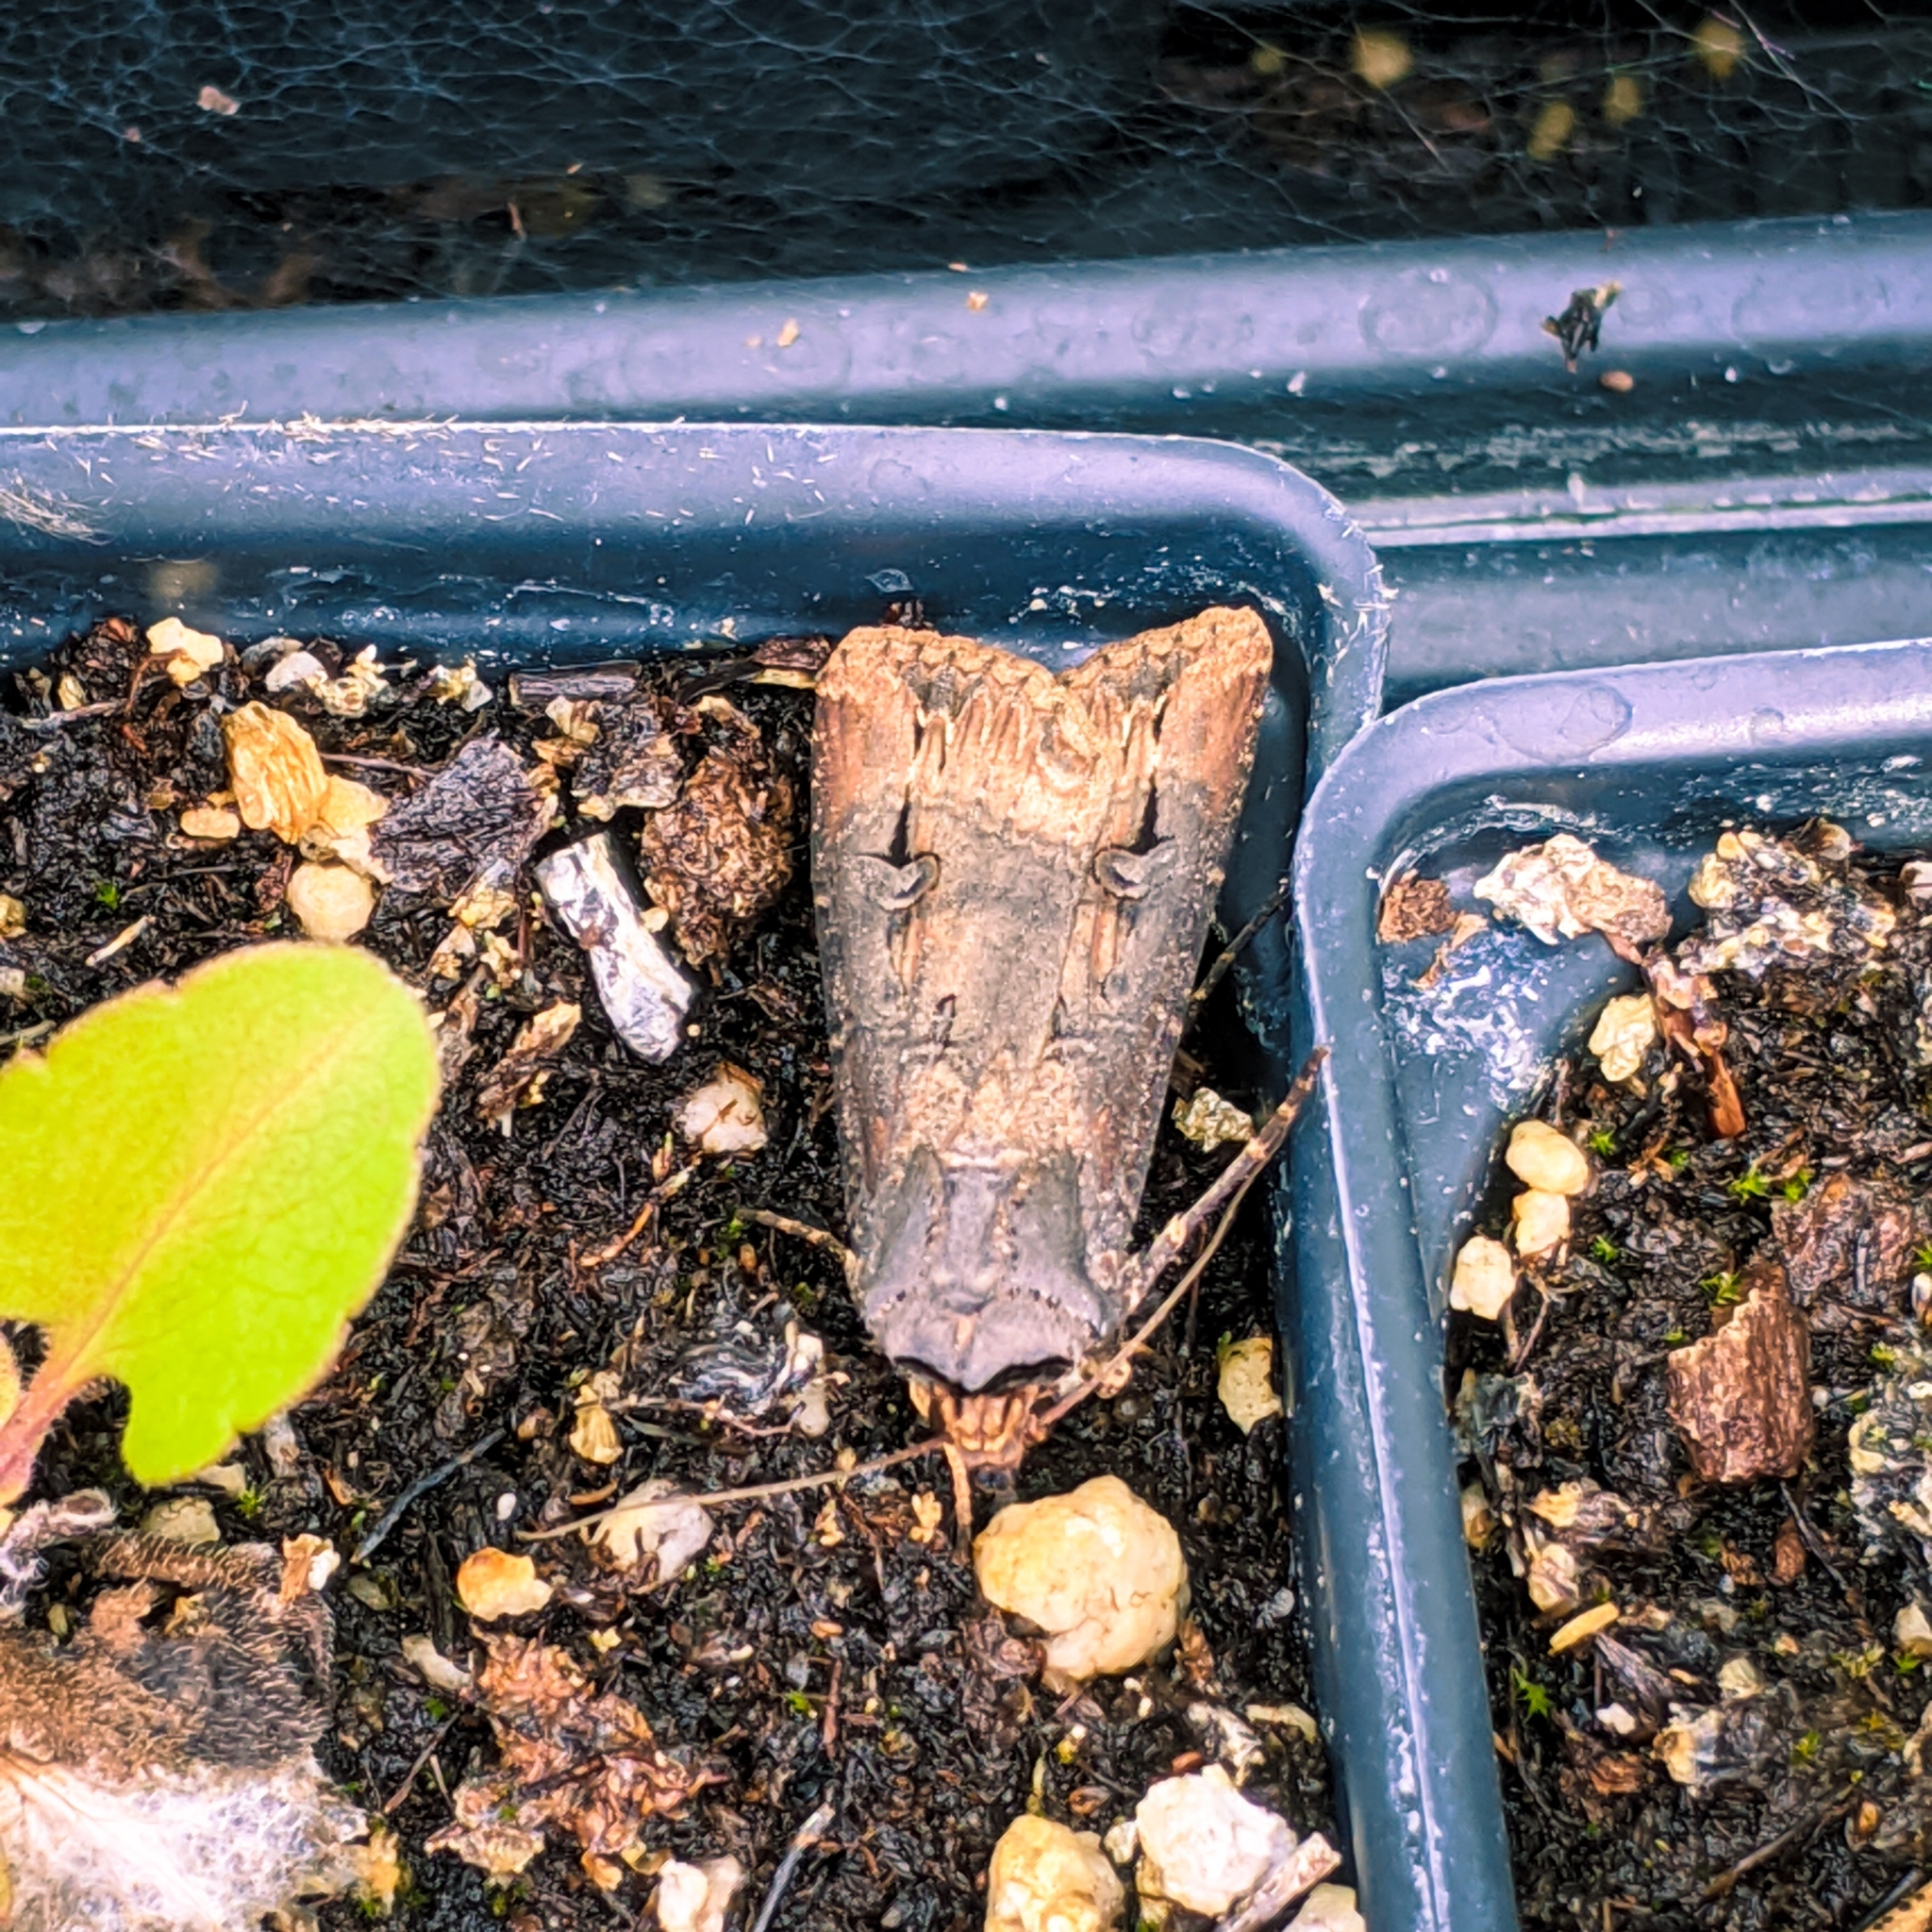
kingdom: Animalia
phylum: Arthropoda
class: Insecta
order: Lepidoptera
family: Noctuidae
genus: Agrotis
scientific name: Agrotis ipsilon
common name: Dark sword-grass
